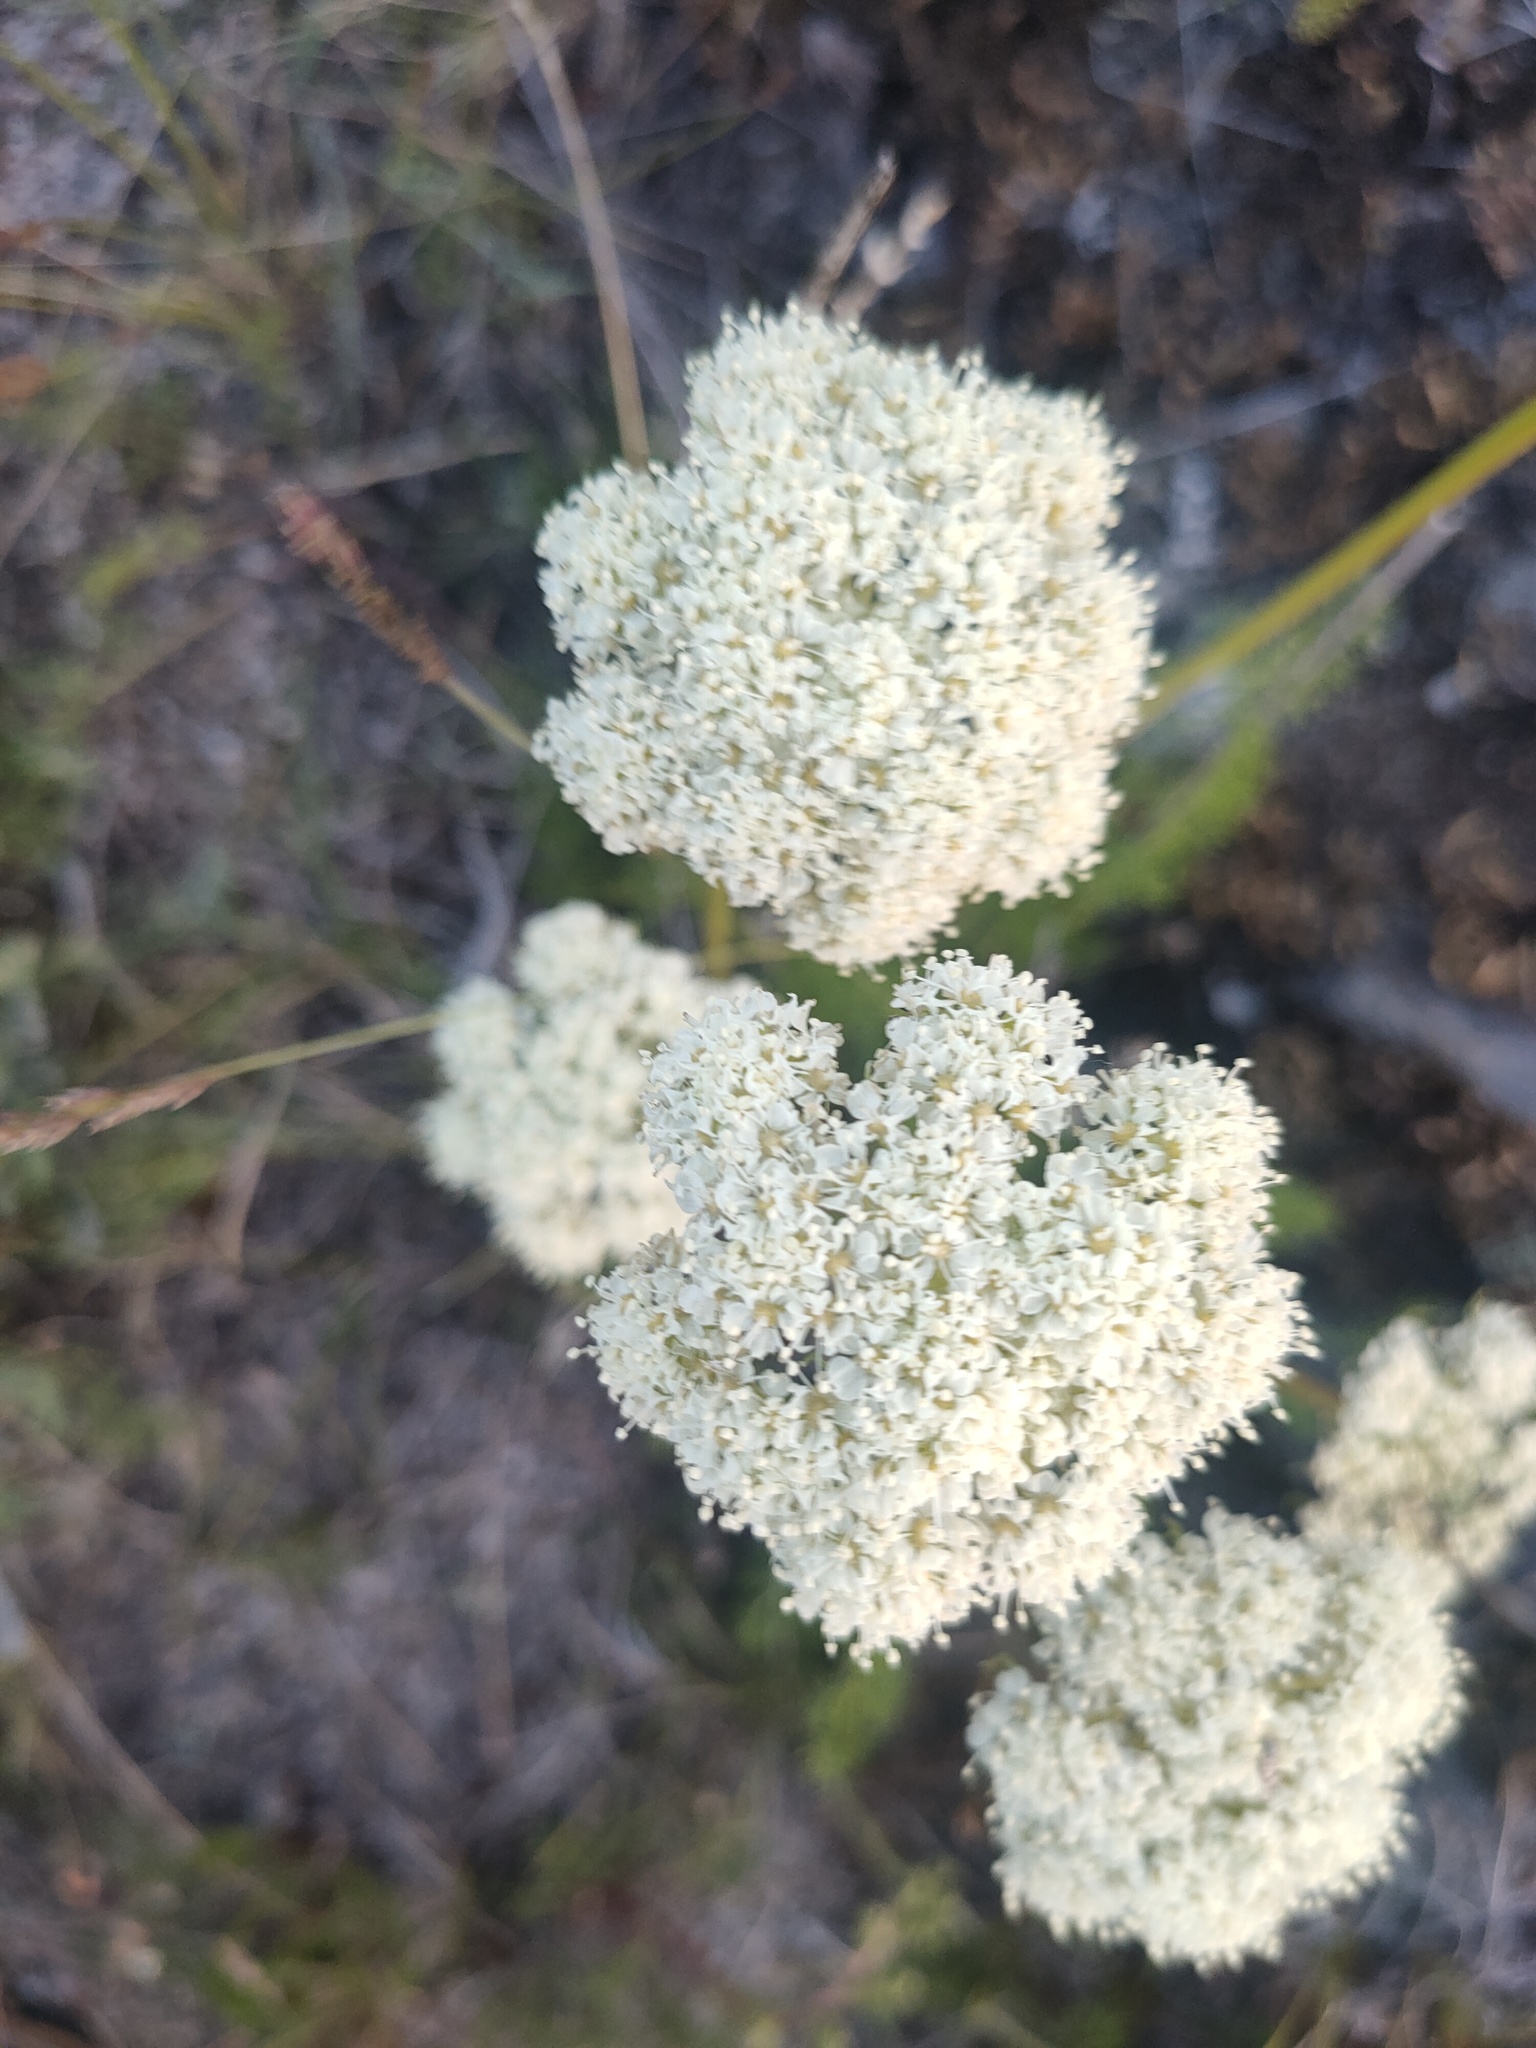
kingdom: Plantae
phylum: Tracheophyta
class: Magnoliopsida
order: Apiales
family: Apiaceae
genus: Ferulopsis
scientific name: Ferulopsis hystrix
